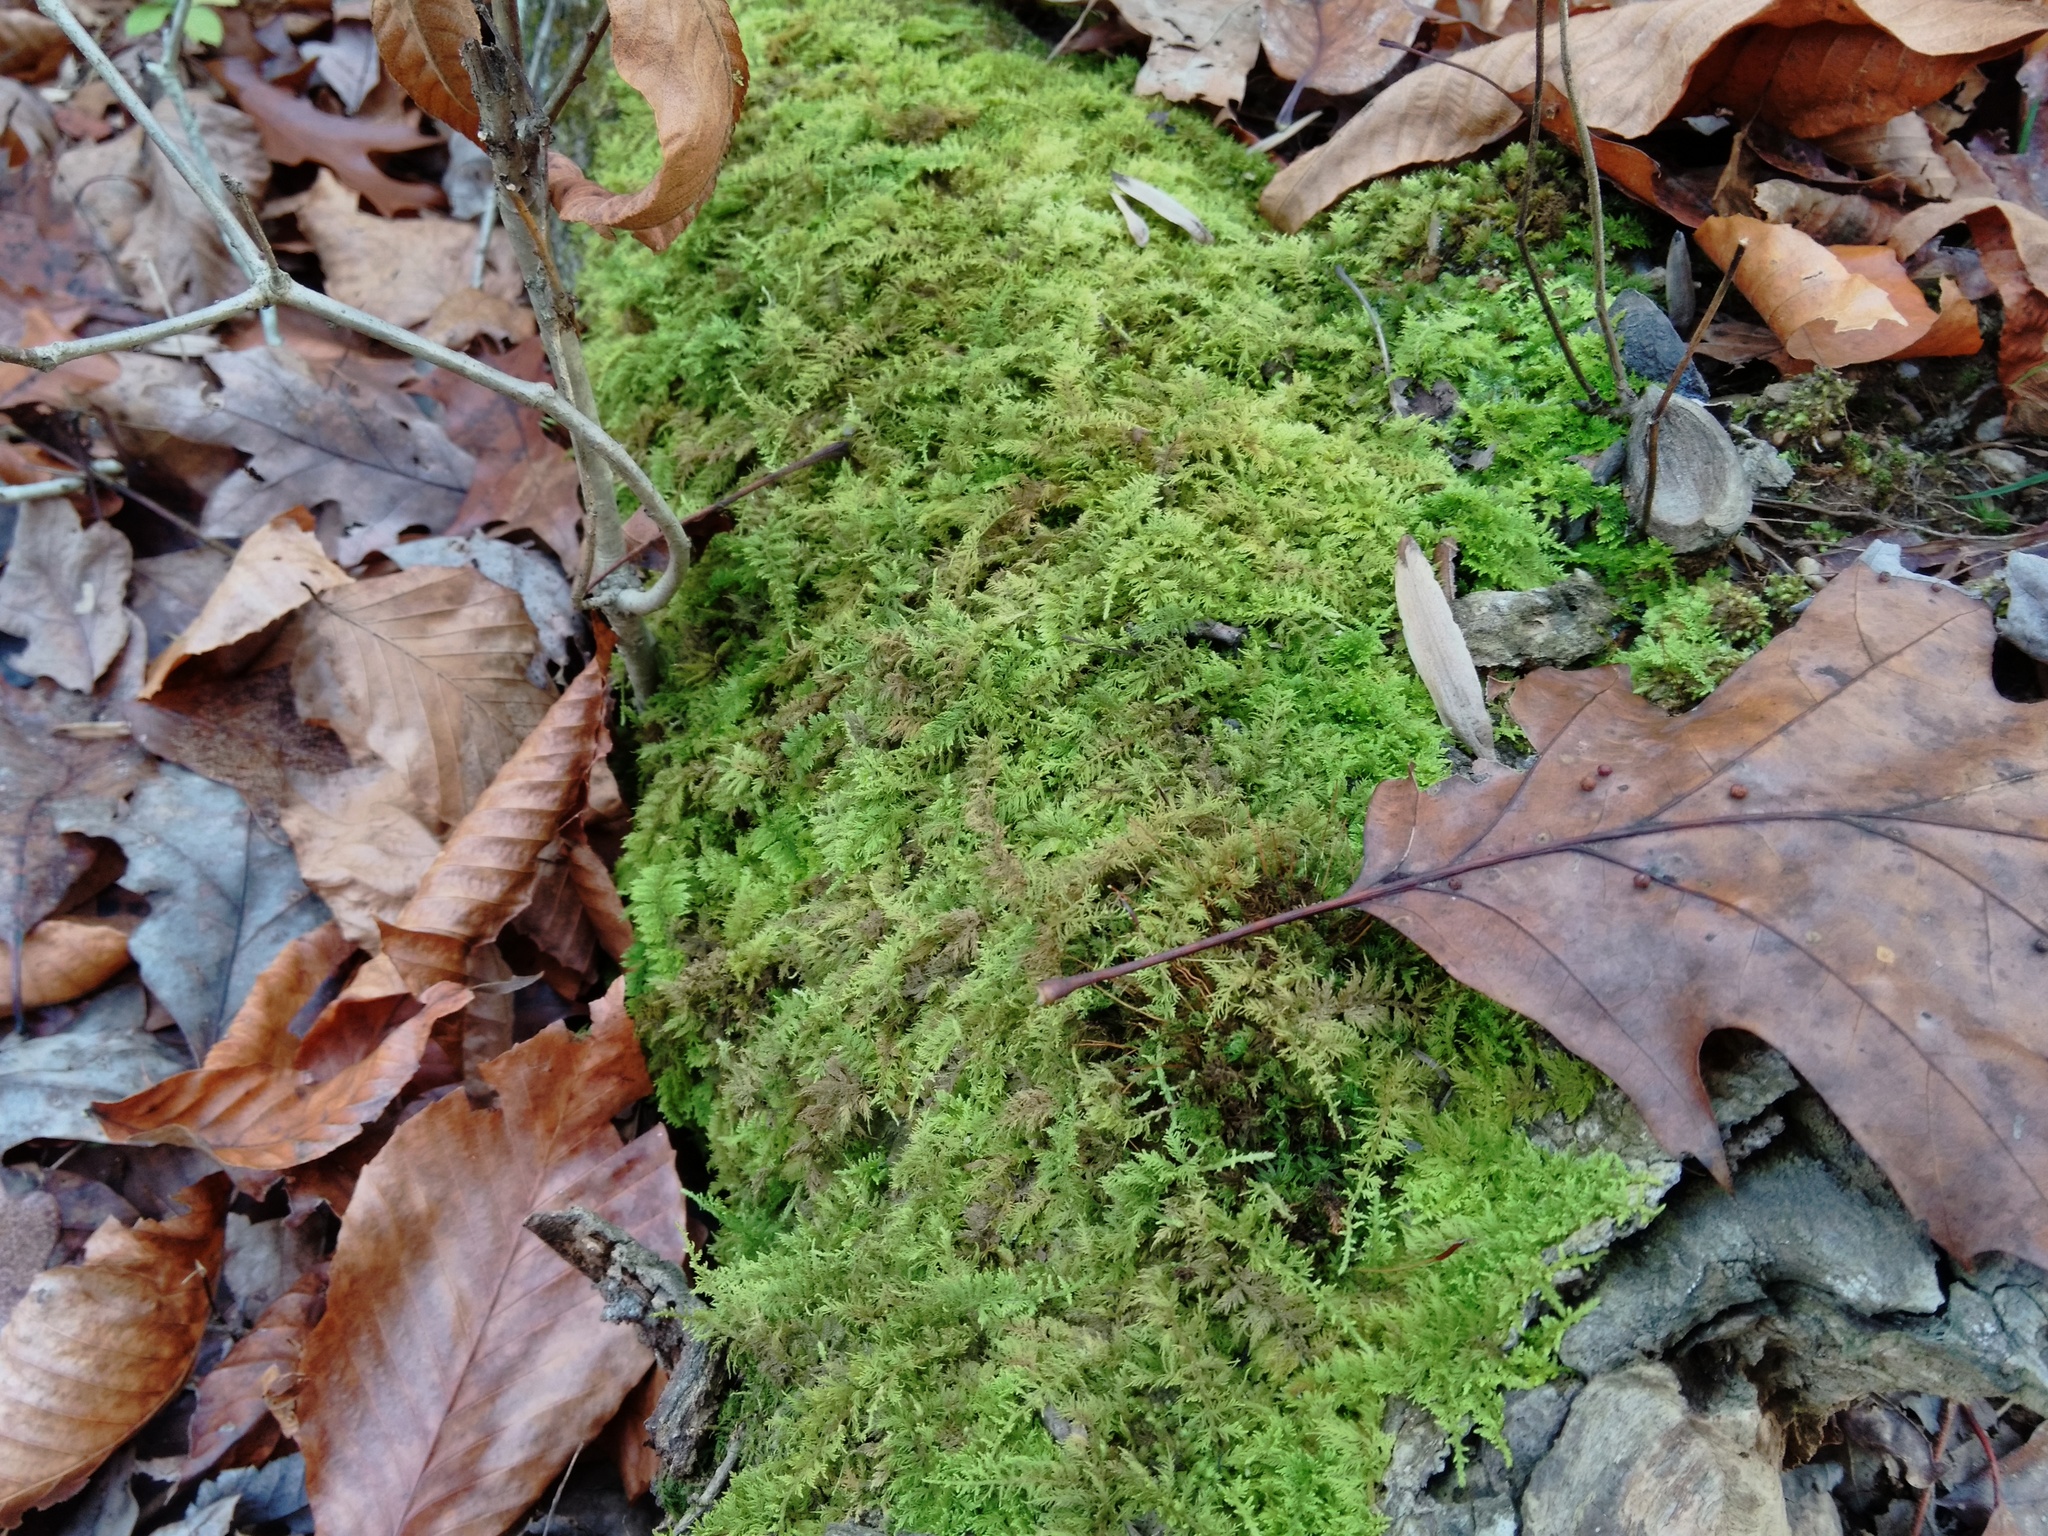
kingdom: Plantae
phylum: Bryophyta
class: Bryopsida
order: Hypnales
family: Thuidiaceae
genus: Thuidium
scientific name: Thuidium delicatulum
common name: Delicate fern moss
